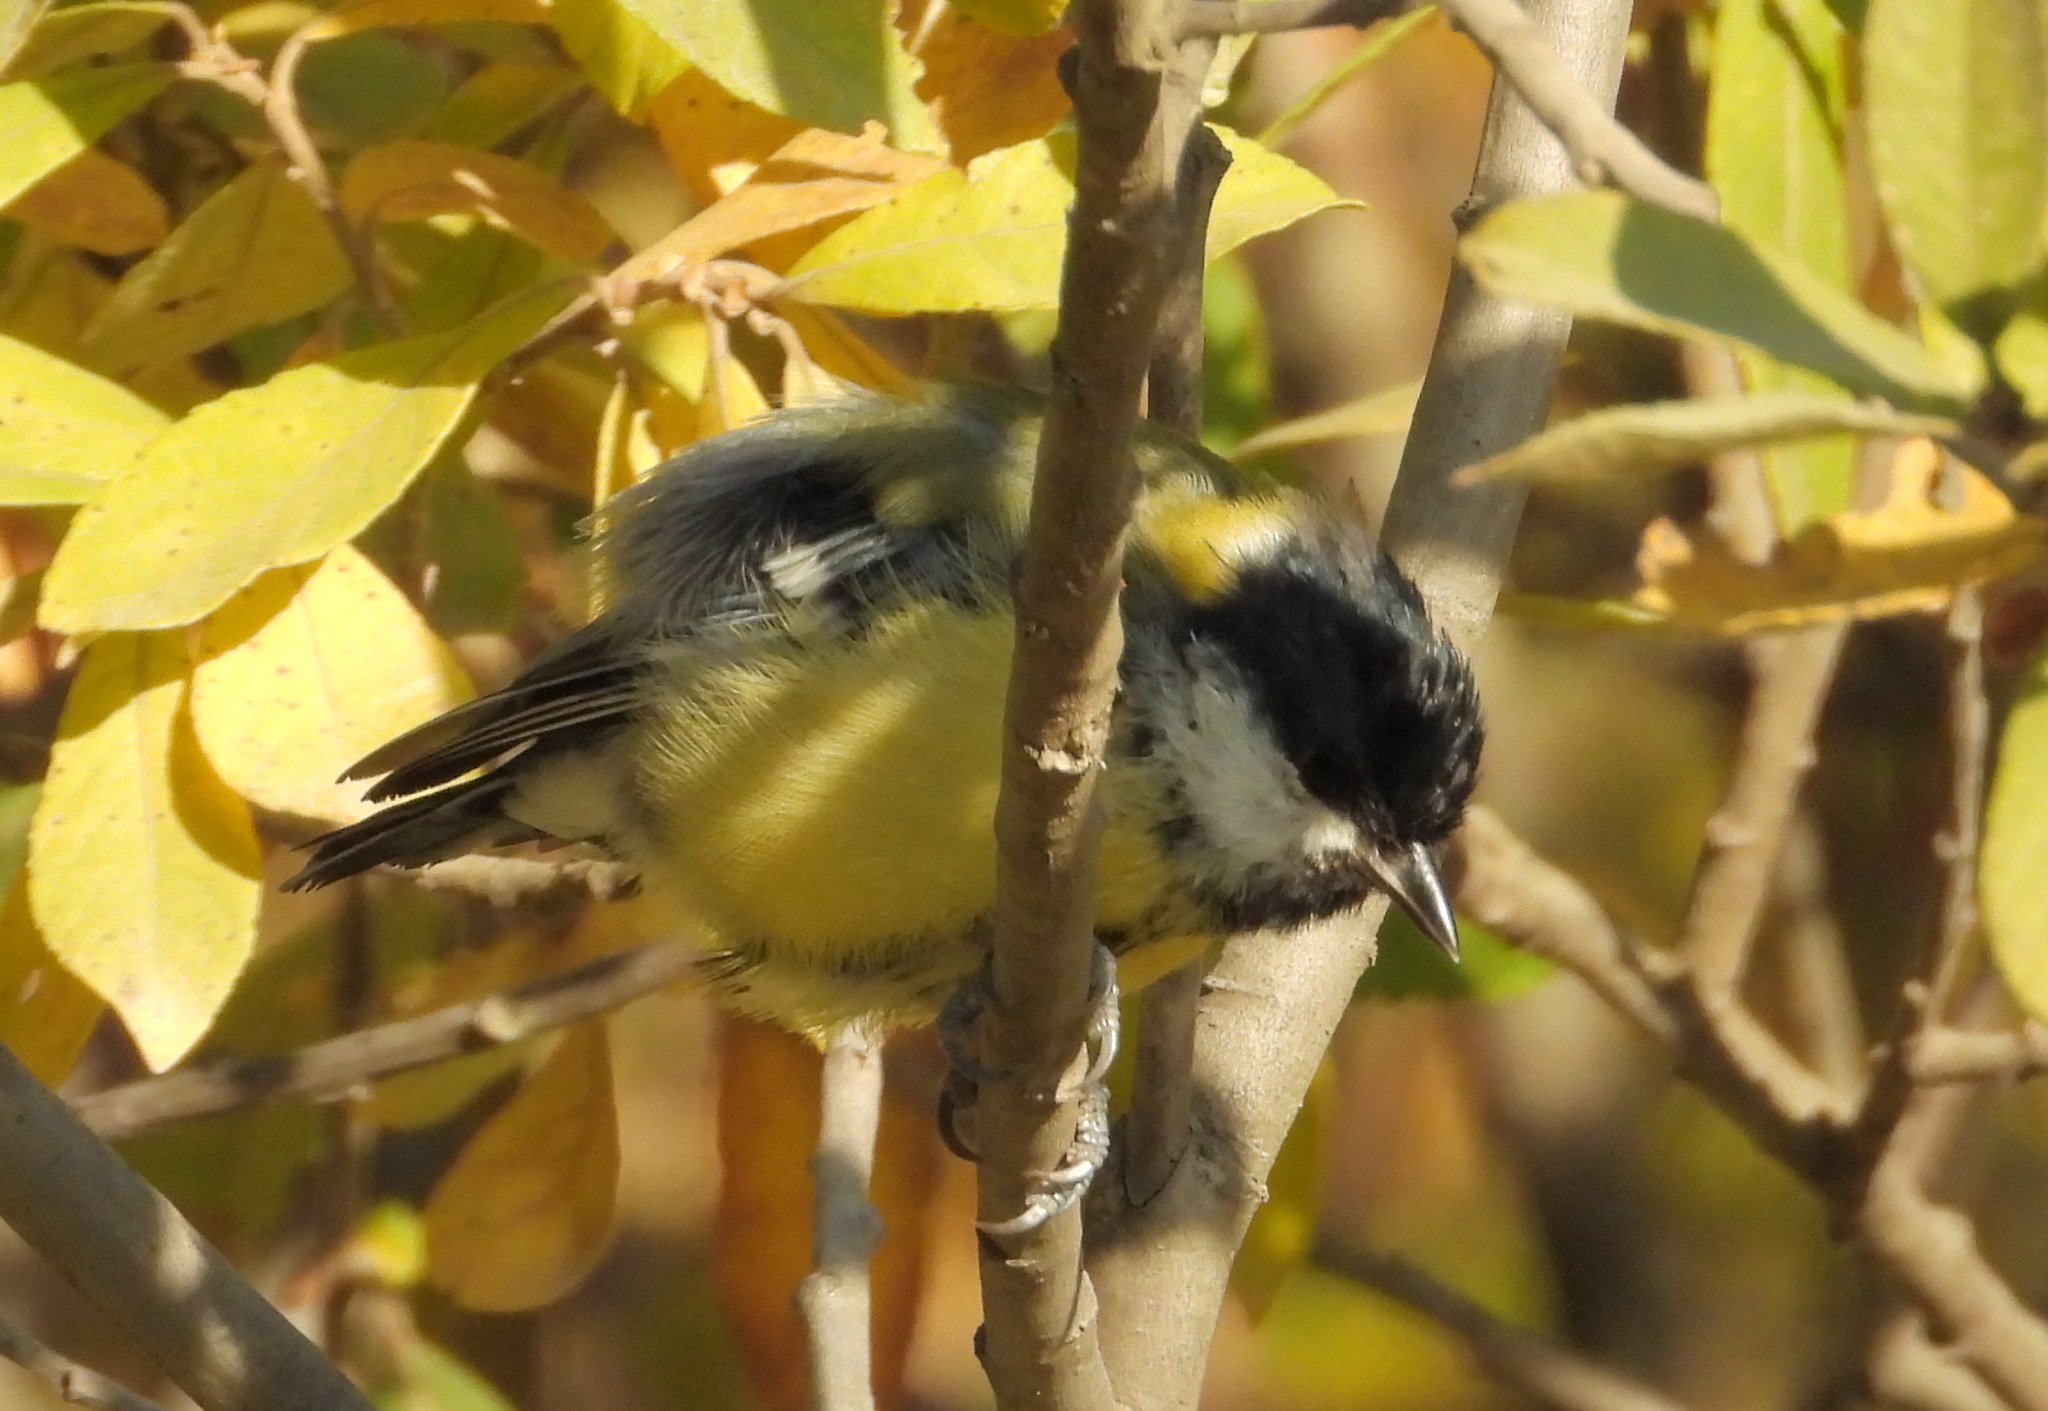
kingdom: Animalia
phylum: Chordata
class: Aves
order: Passeriformes
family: Paridae
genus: Parus
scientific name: Parus major
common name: Great tit
